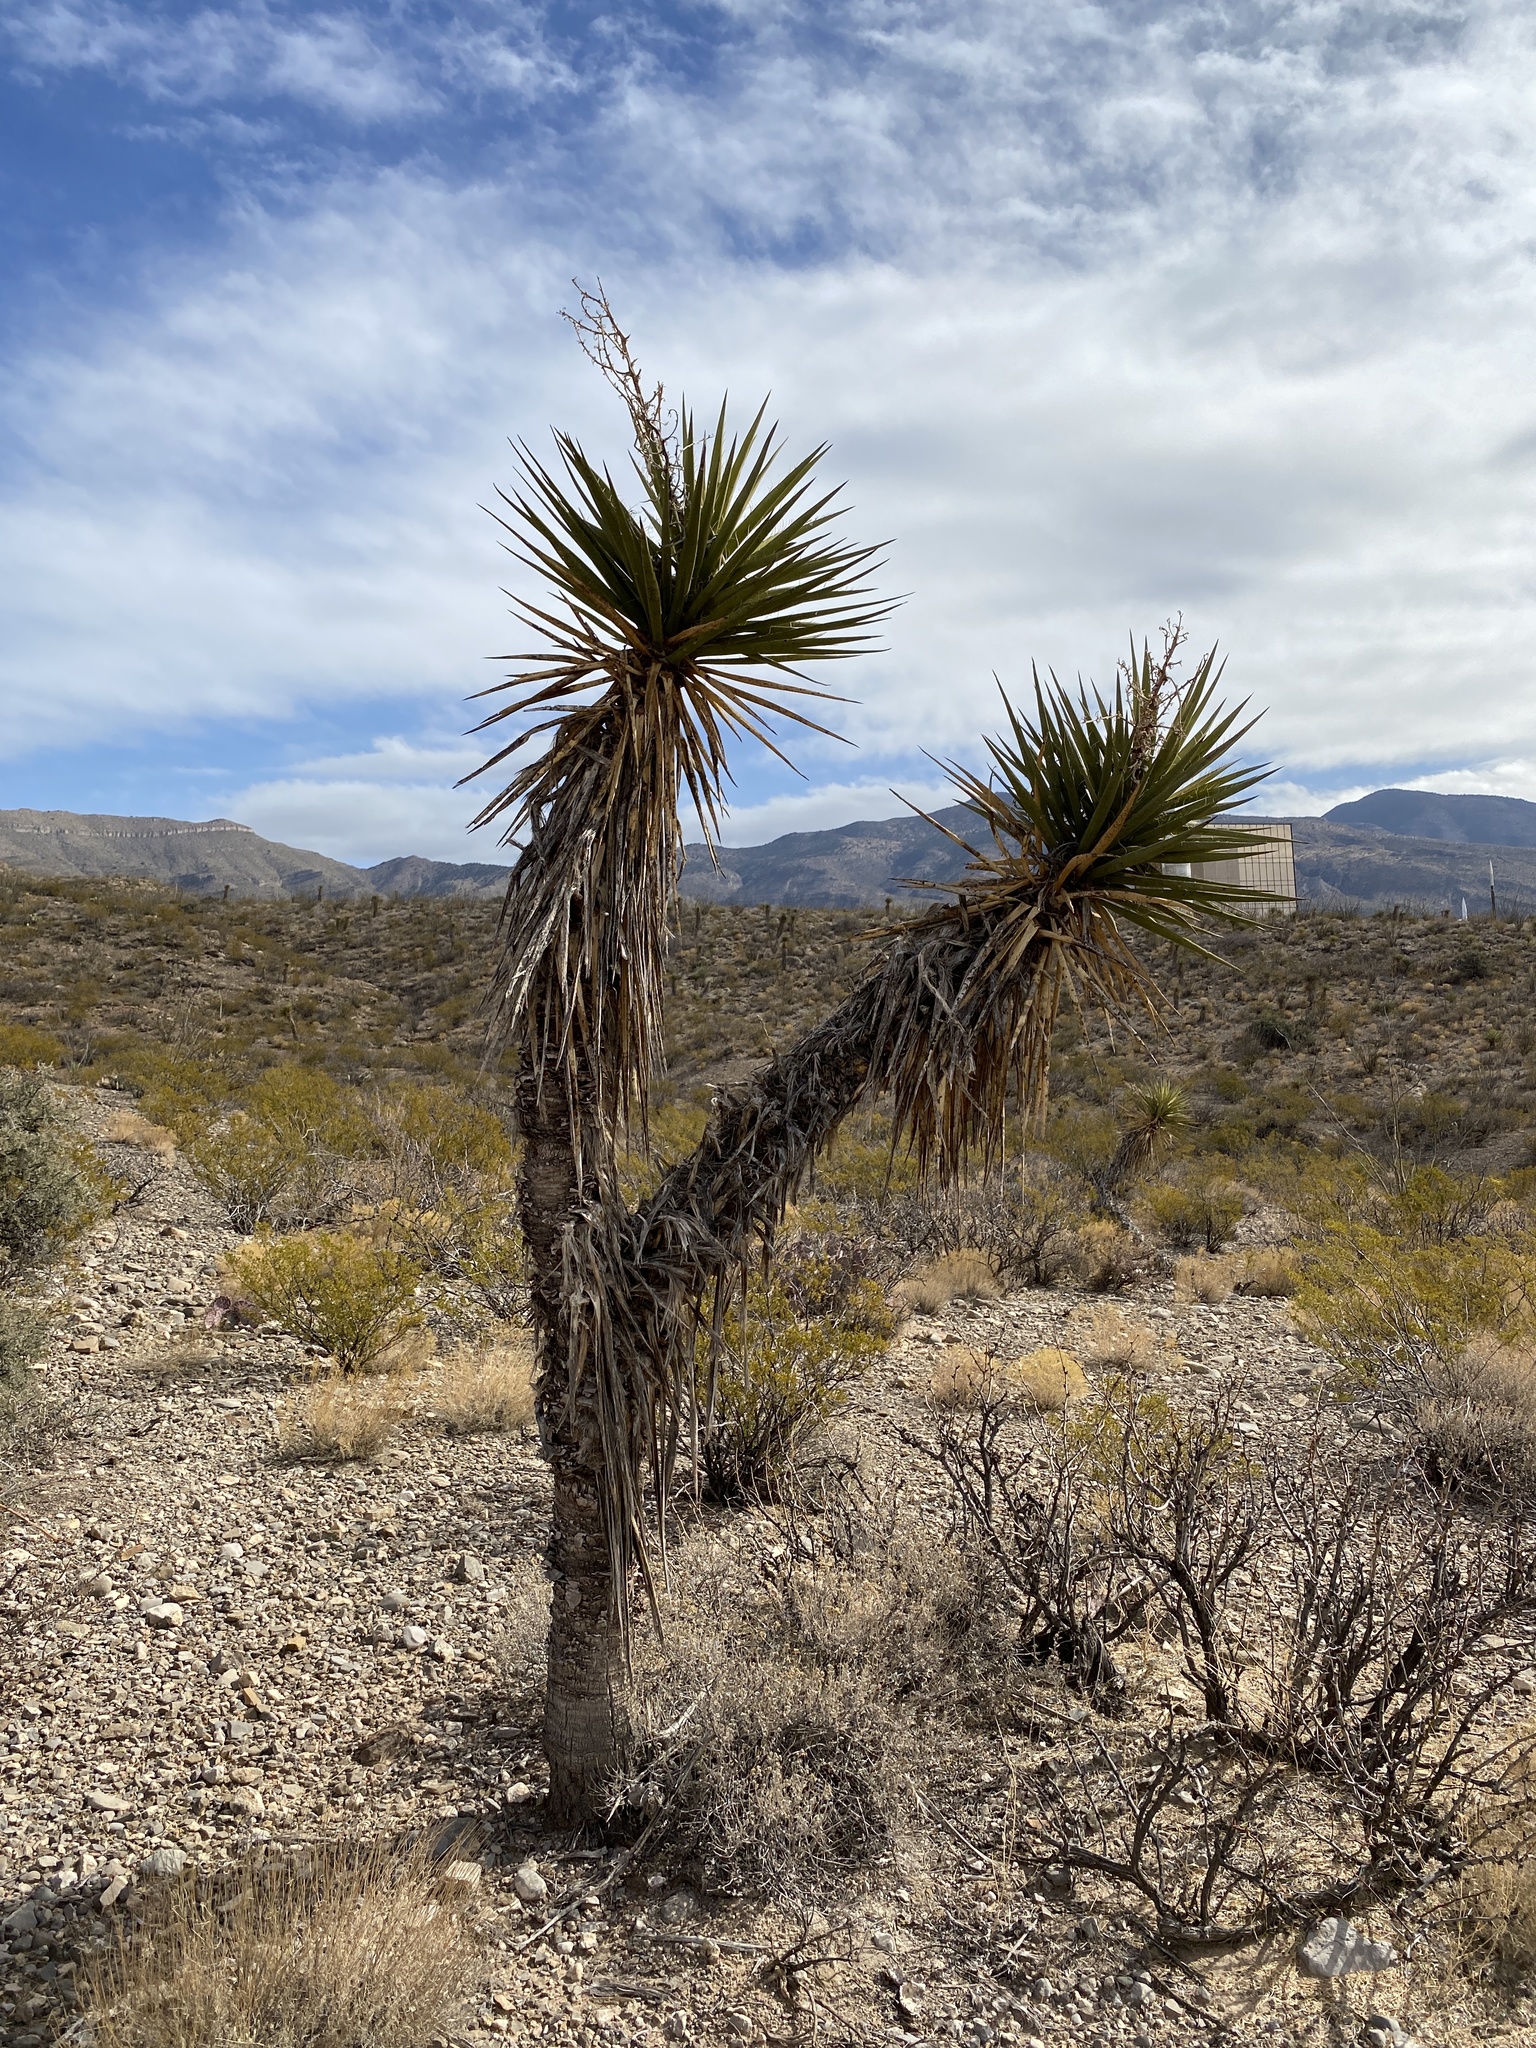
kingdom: Plantae
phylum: Tracheophyta
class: Liliopsida
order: Asparagales
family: Asparagaceae
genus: Yucca
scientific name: Yucca treculiana
